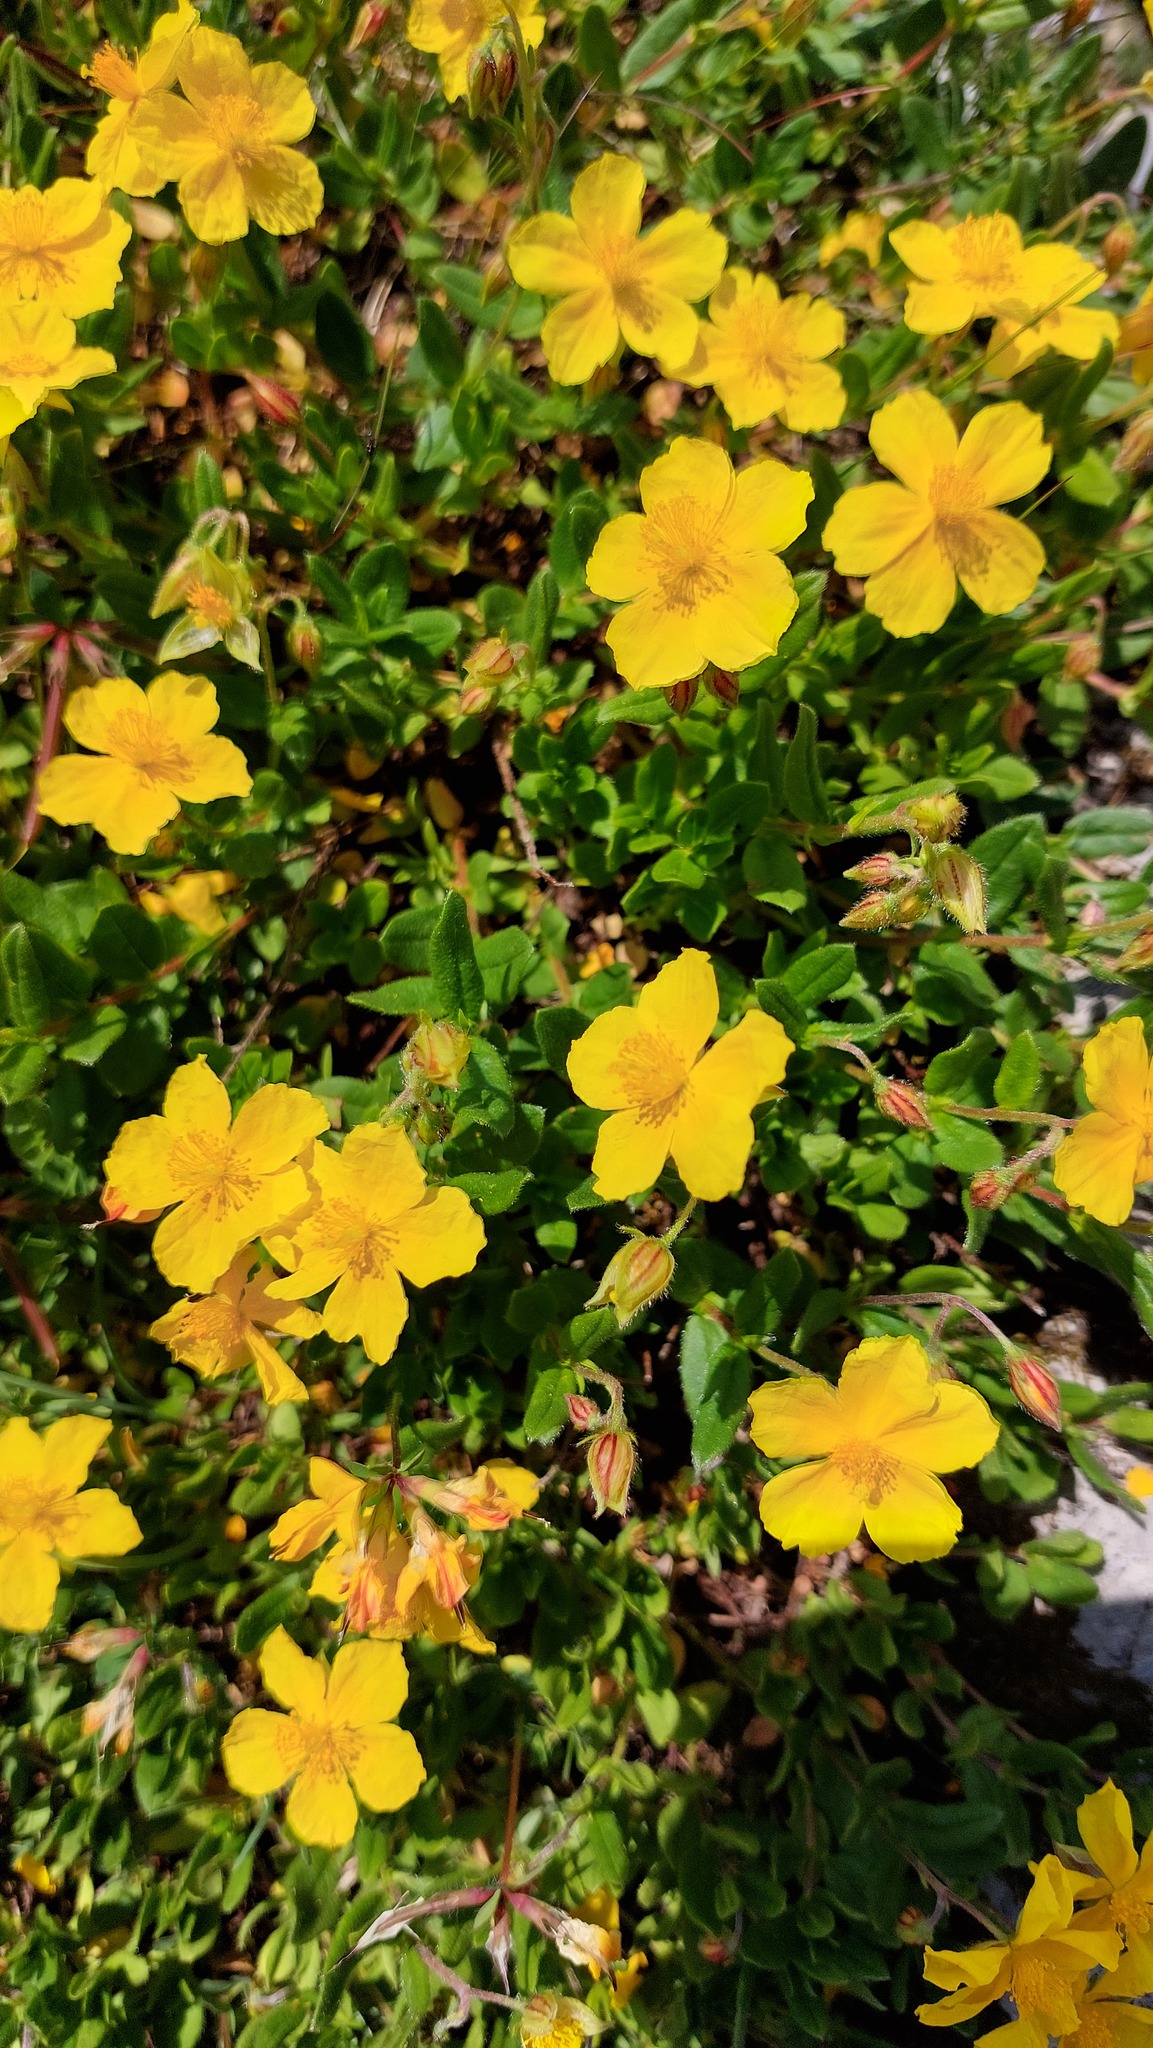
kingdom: Plantae
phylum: Tracheophyta
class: Magnoliopsida
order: Malvales
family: Cistaceae
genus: Helianthemum
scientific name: Helianthemum nummularium
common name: Common rock-rose
